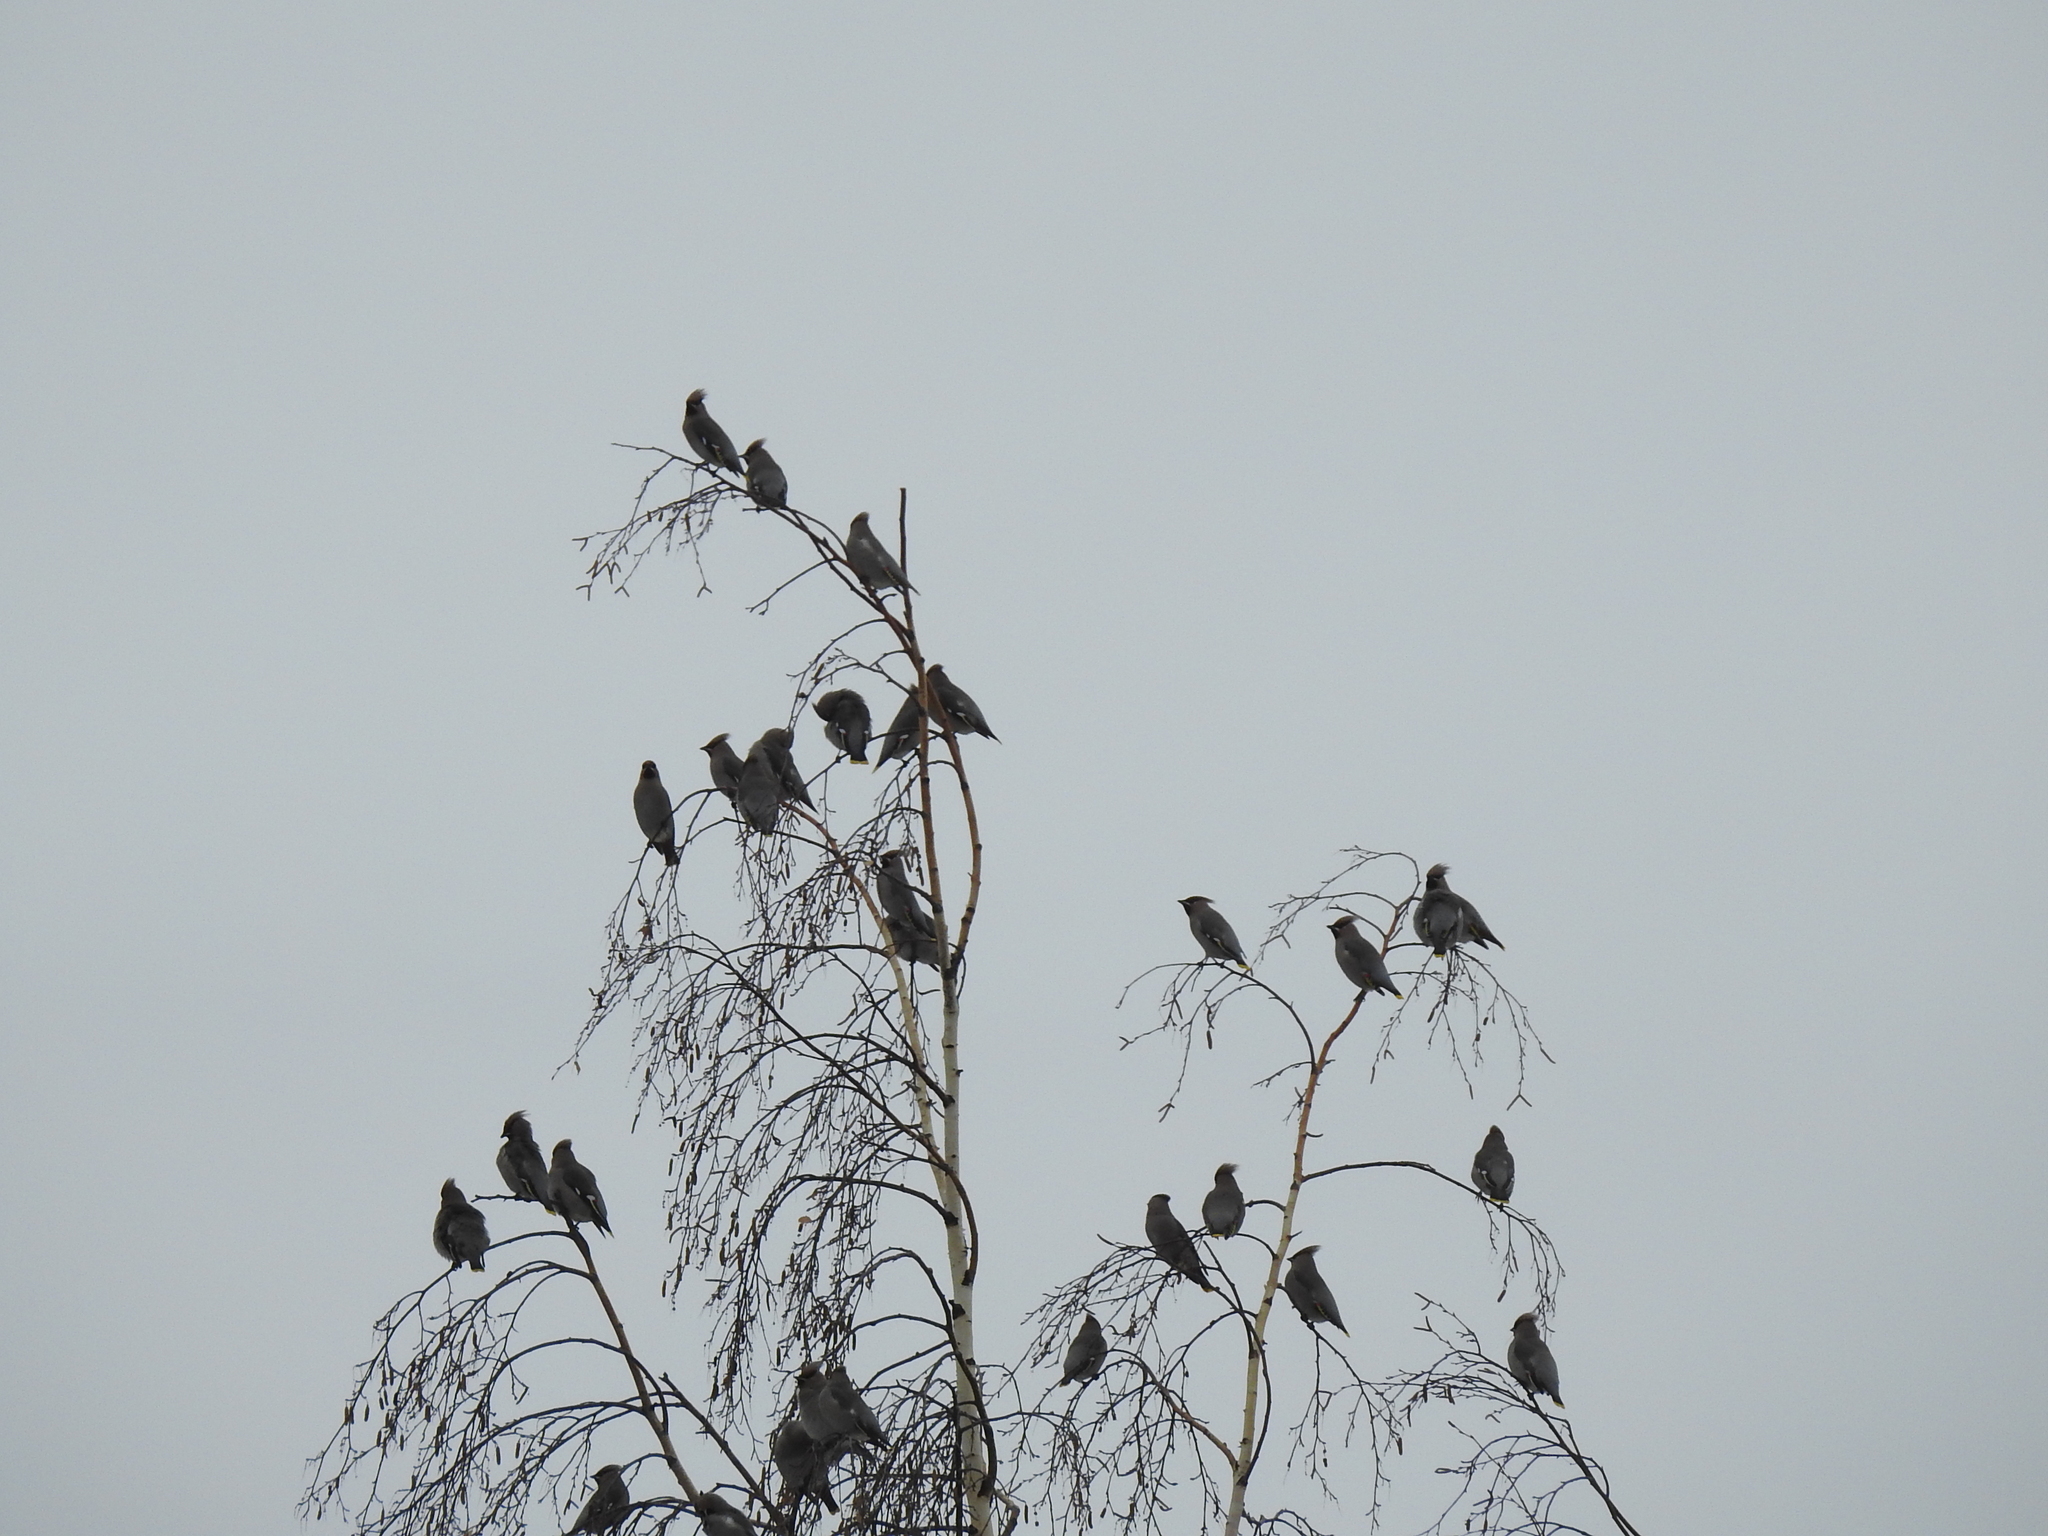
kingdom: Animalia
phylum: Chordata
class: Aves
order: Passeriformes
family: Bombycillidae
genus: Bombycilla
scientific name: Bombycilla garrulus
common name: Bohemian waxwing
